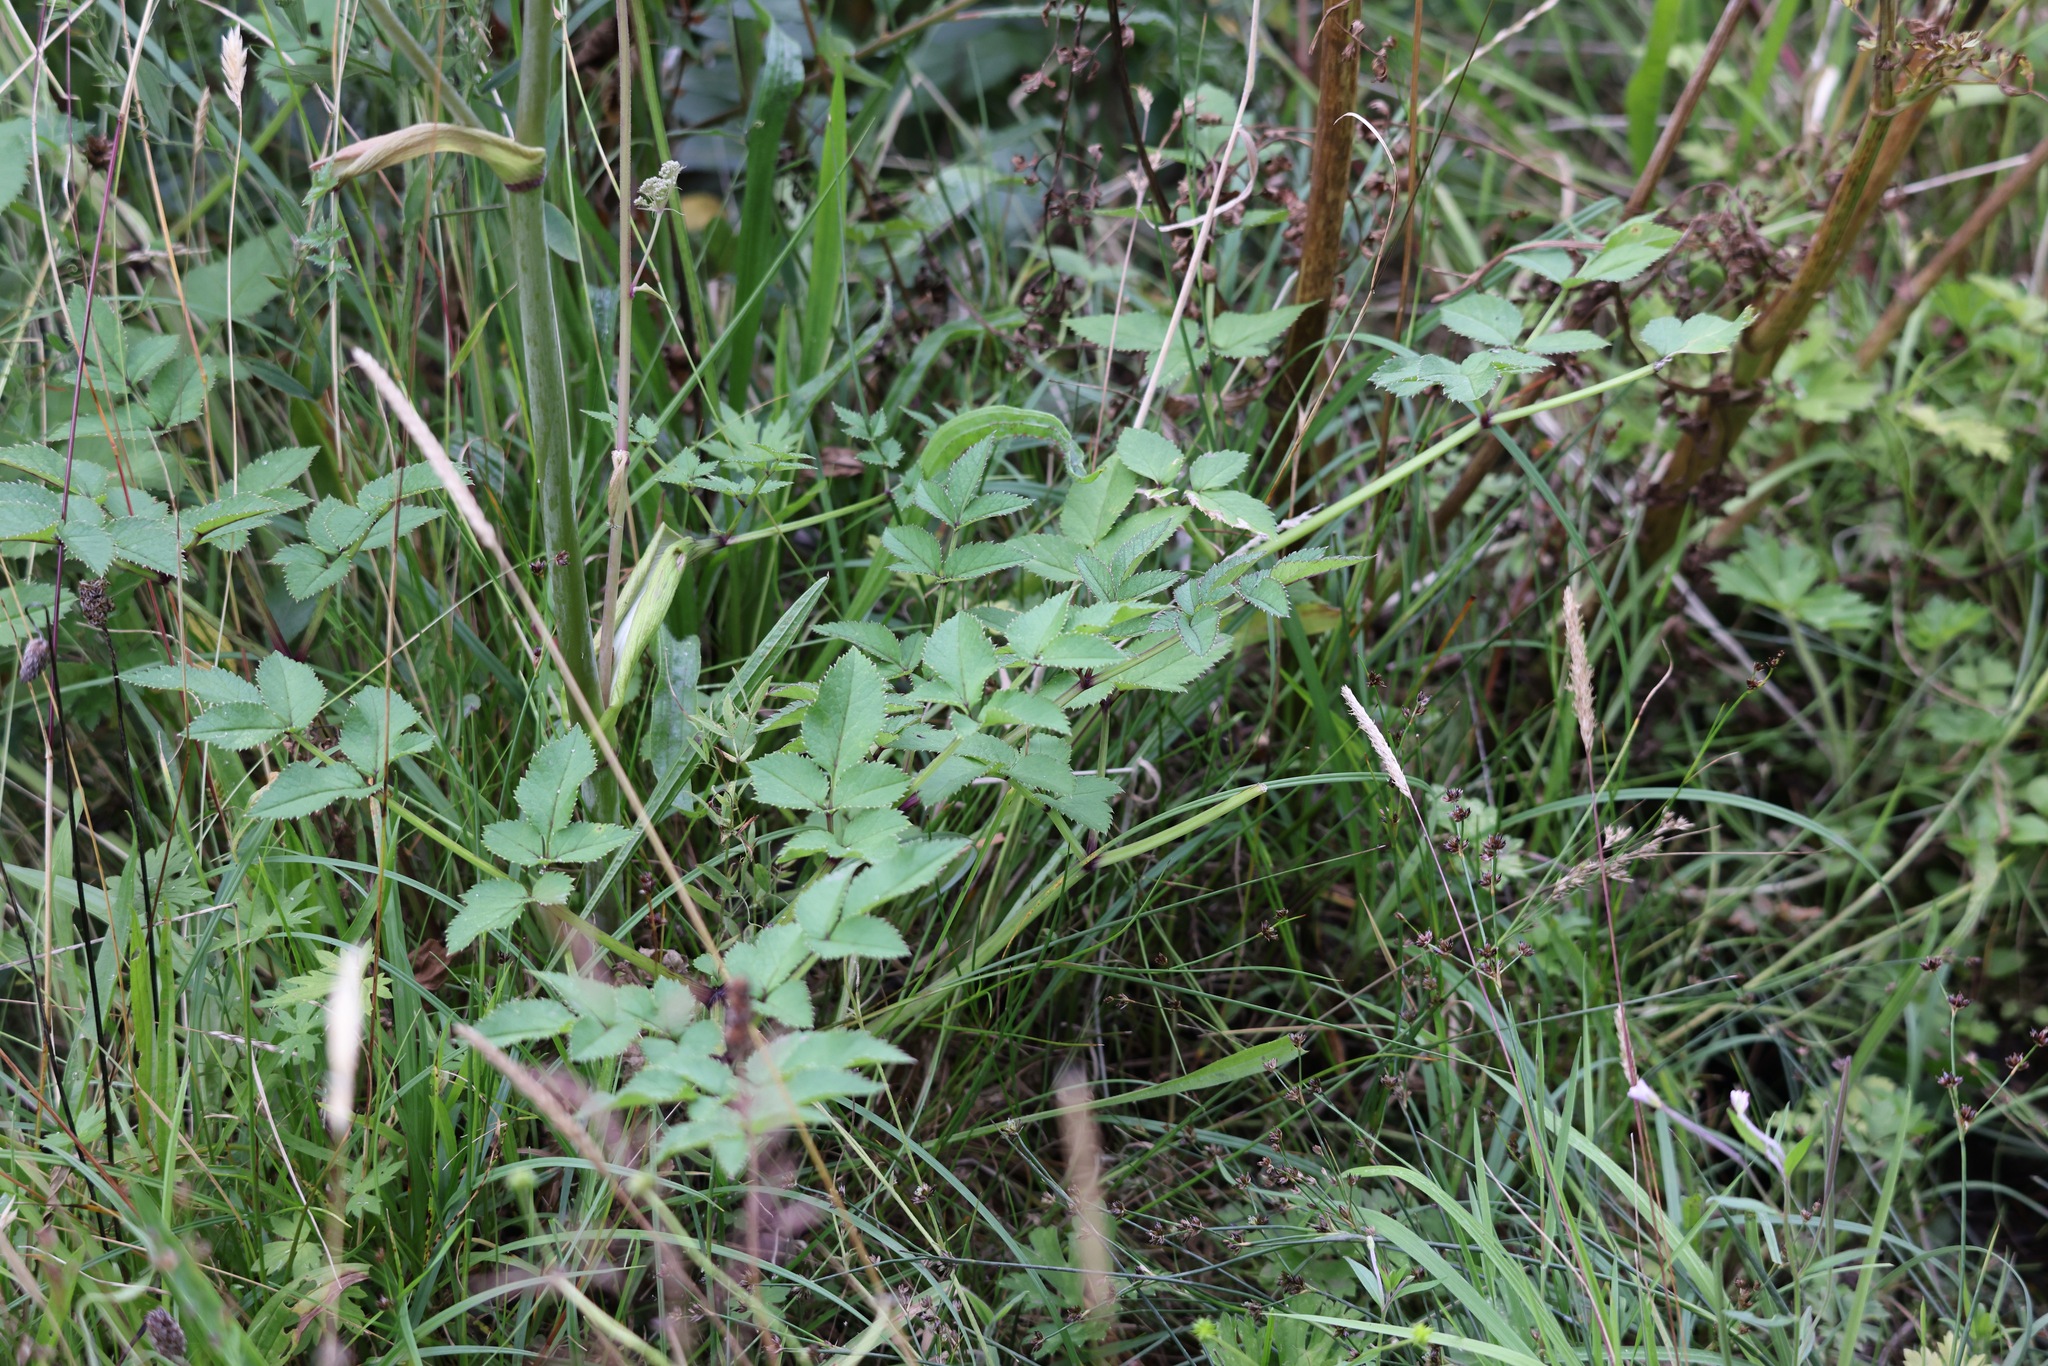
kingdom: Plantae
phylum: Tracheophyta
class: Magnoliopsida
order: Apiales
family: Apiaceae
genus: Angelica
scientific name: Angelica sylvestris
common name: Wild angelica
